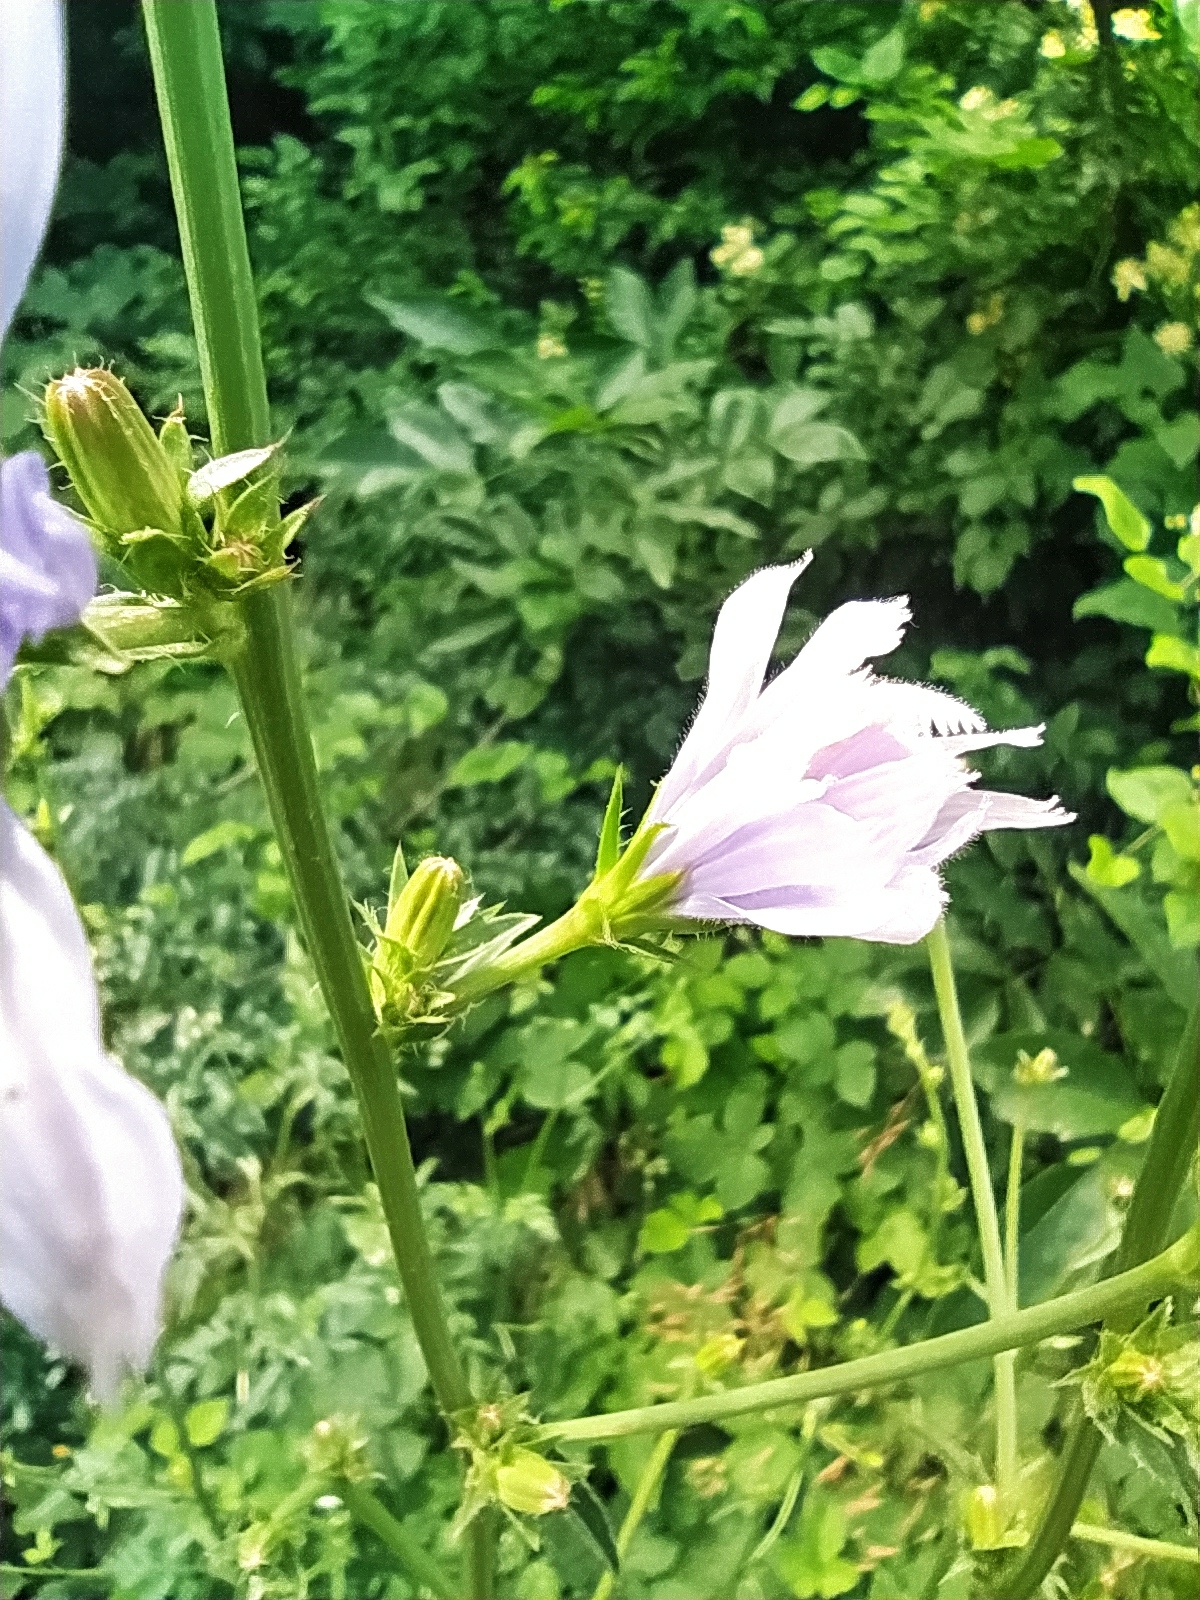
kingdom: Plantae
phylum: Tracheophyta
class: Magnoliopsida
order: Asterales
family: Asteraceae
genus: Cichorium
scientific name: Cichorium intybus
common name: Chicory
